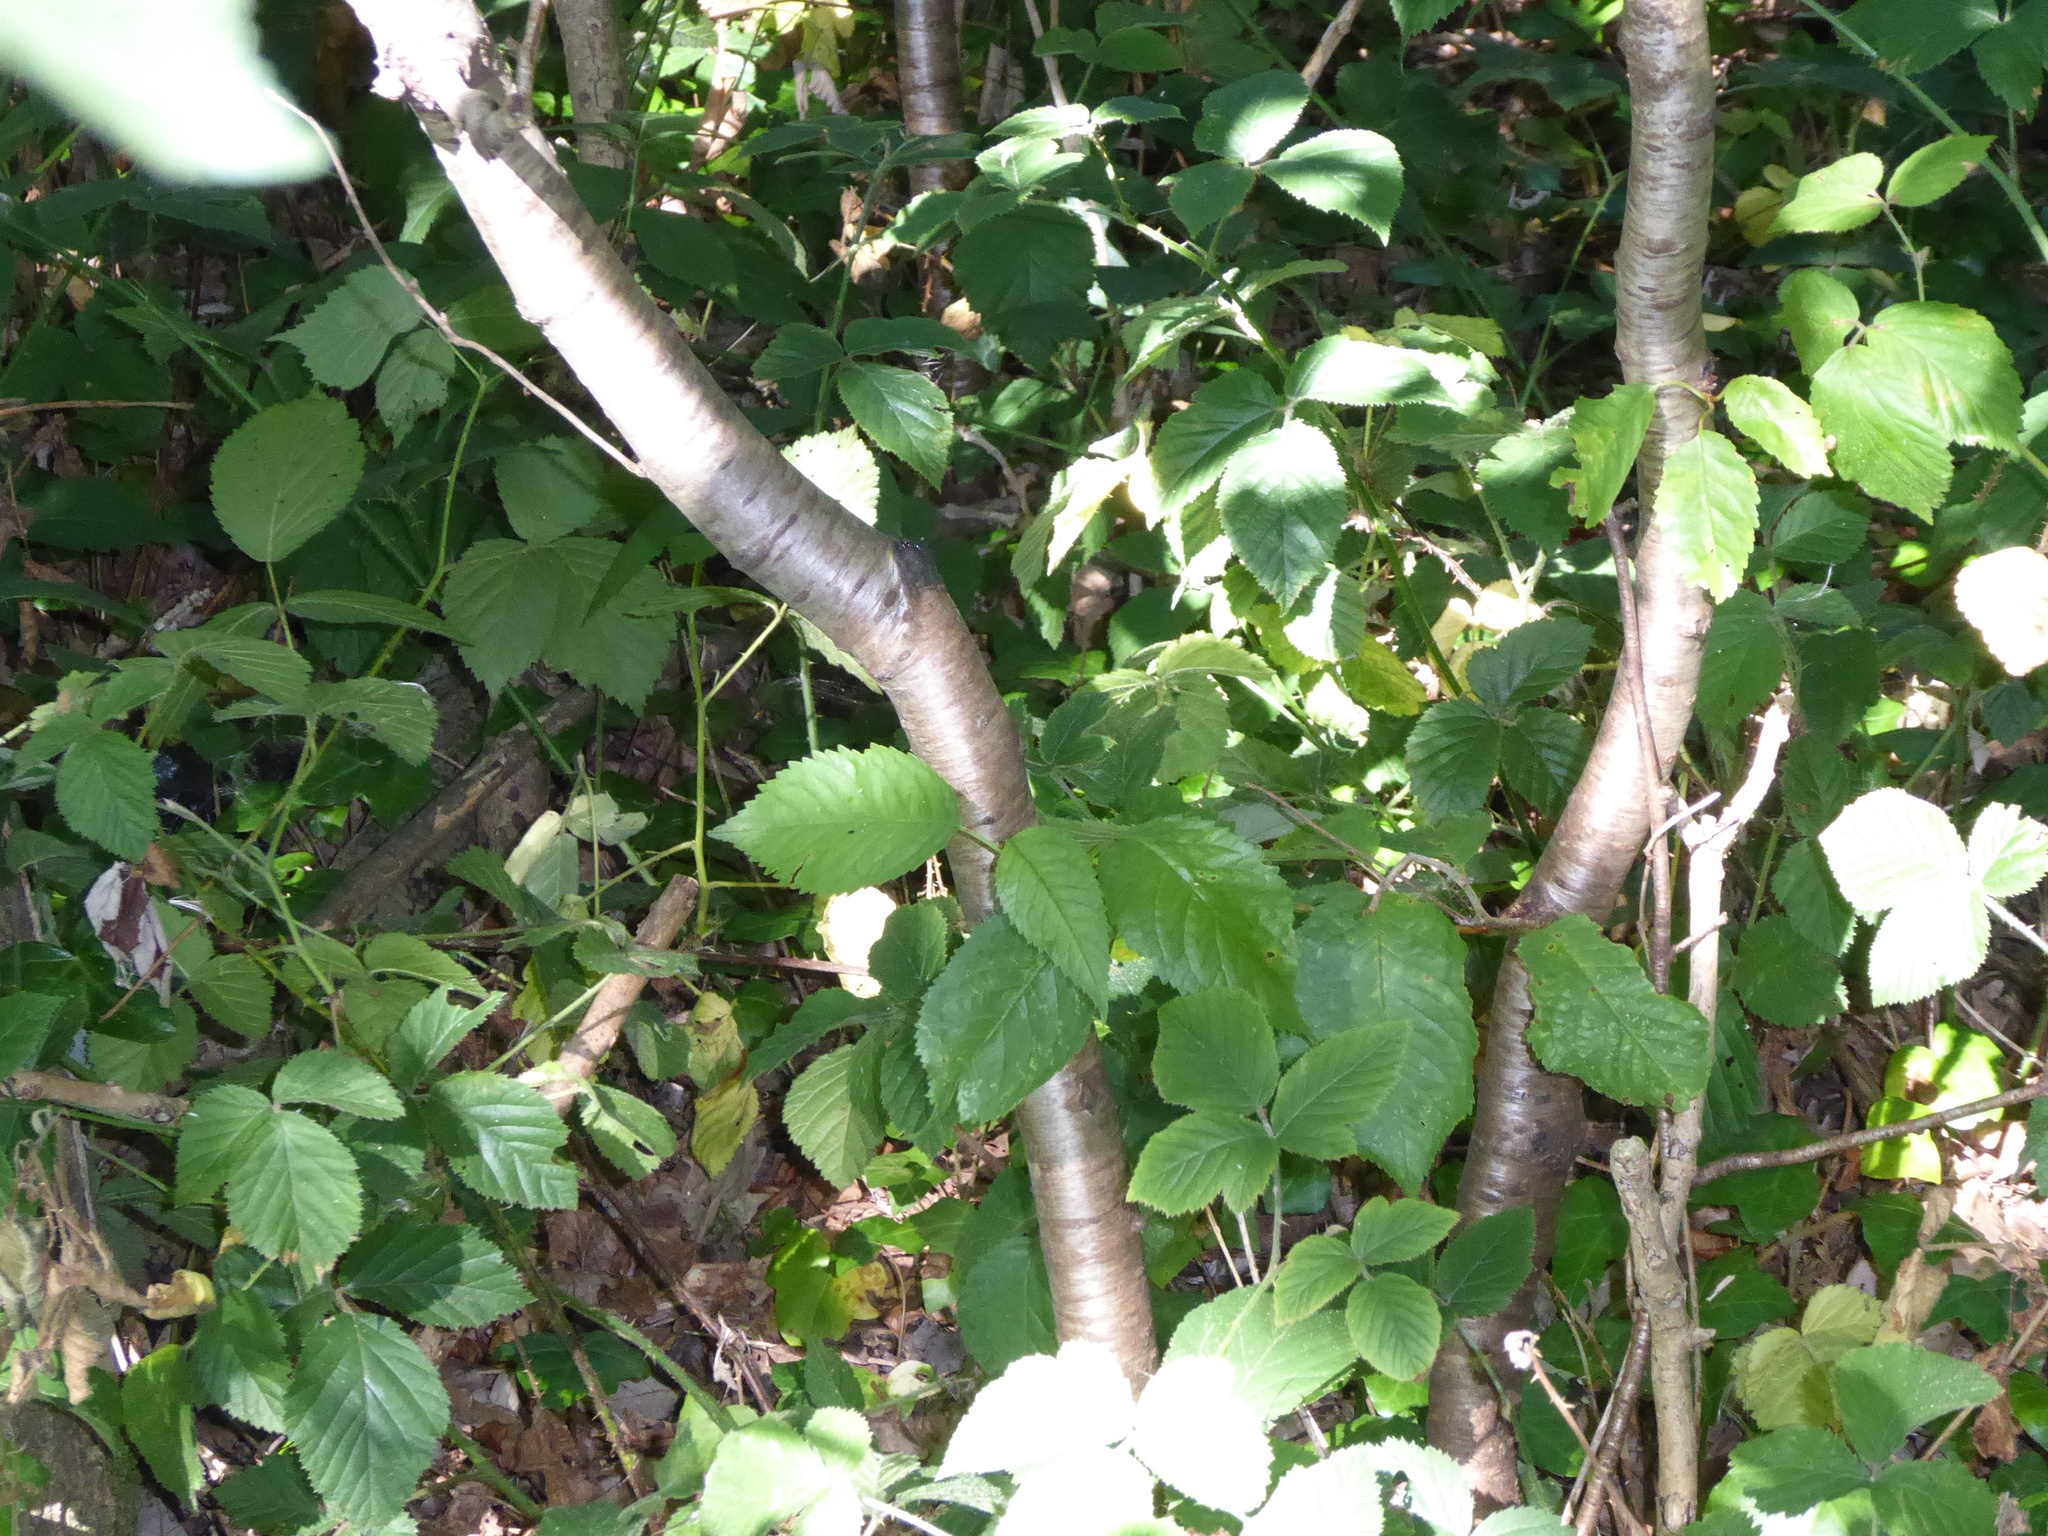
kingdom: Plantae
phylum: Tracheophyta
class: Magnoliopsida
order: Rosales
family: Rosaceae
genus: Prunus
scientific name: Prunus avium
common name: Sweet cherry
